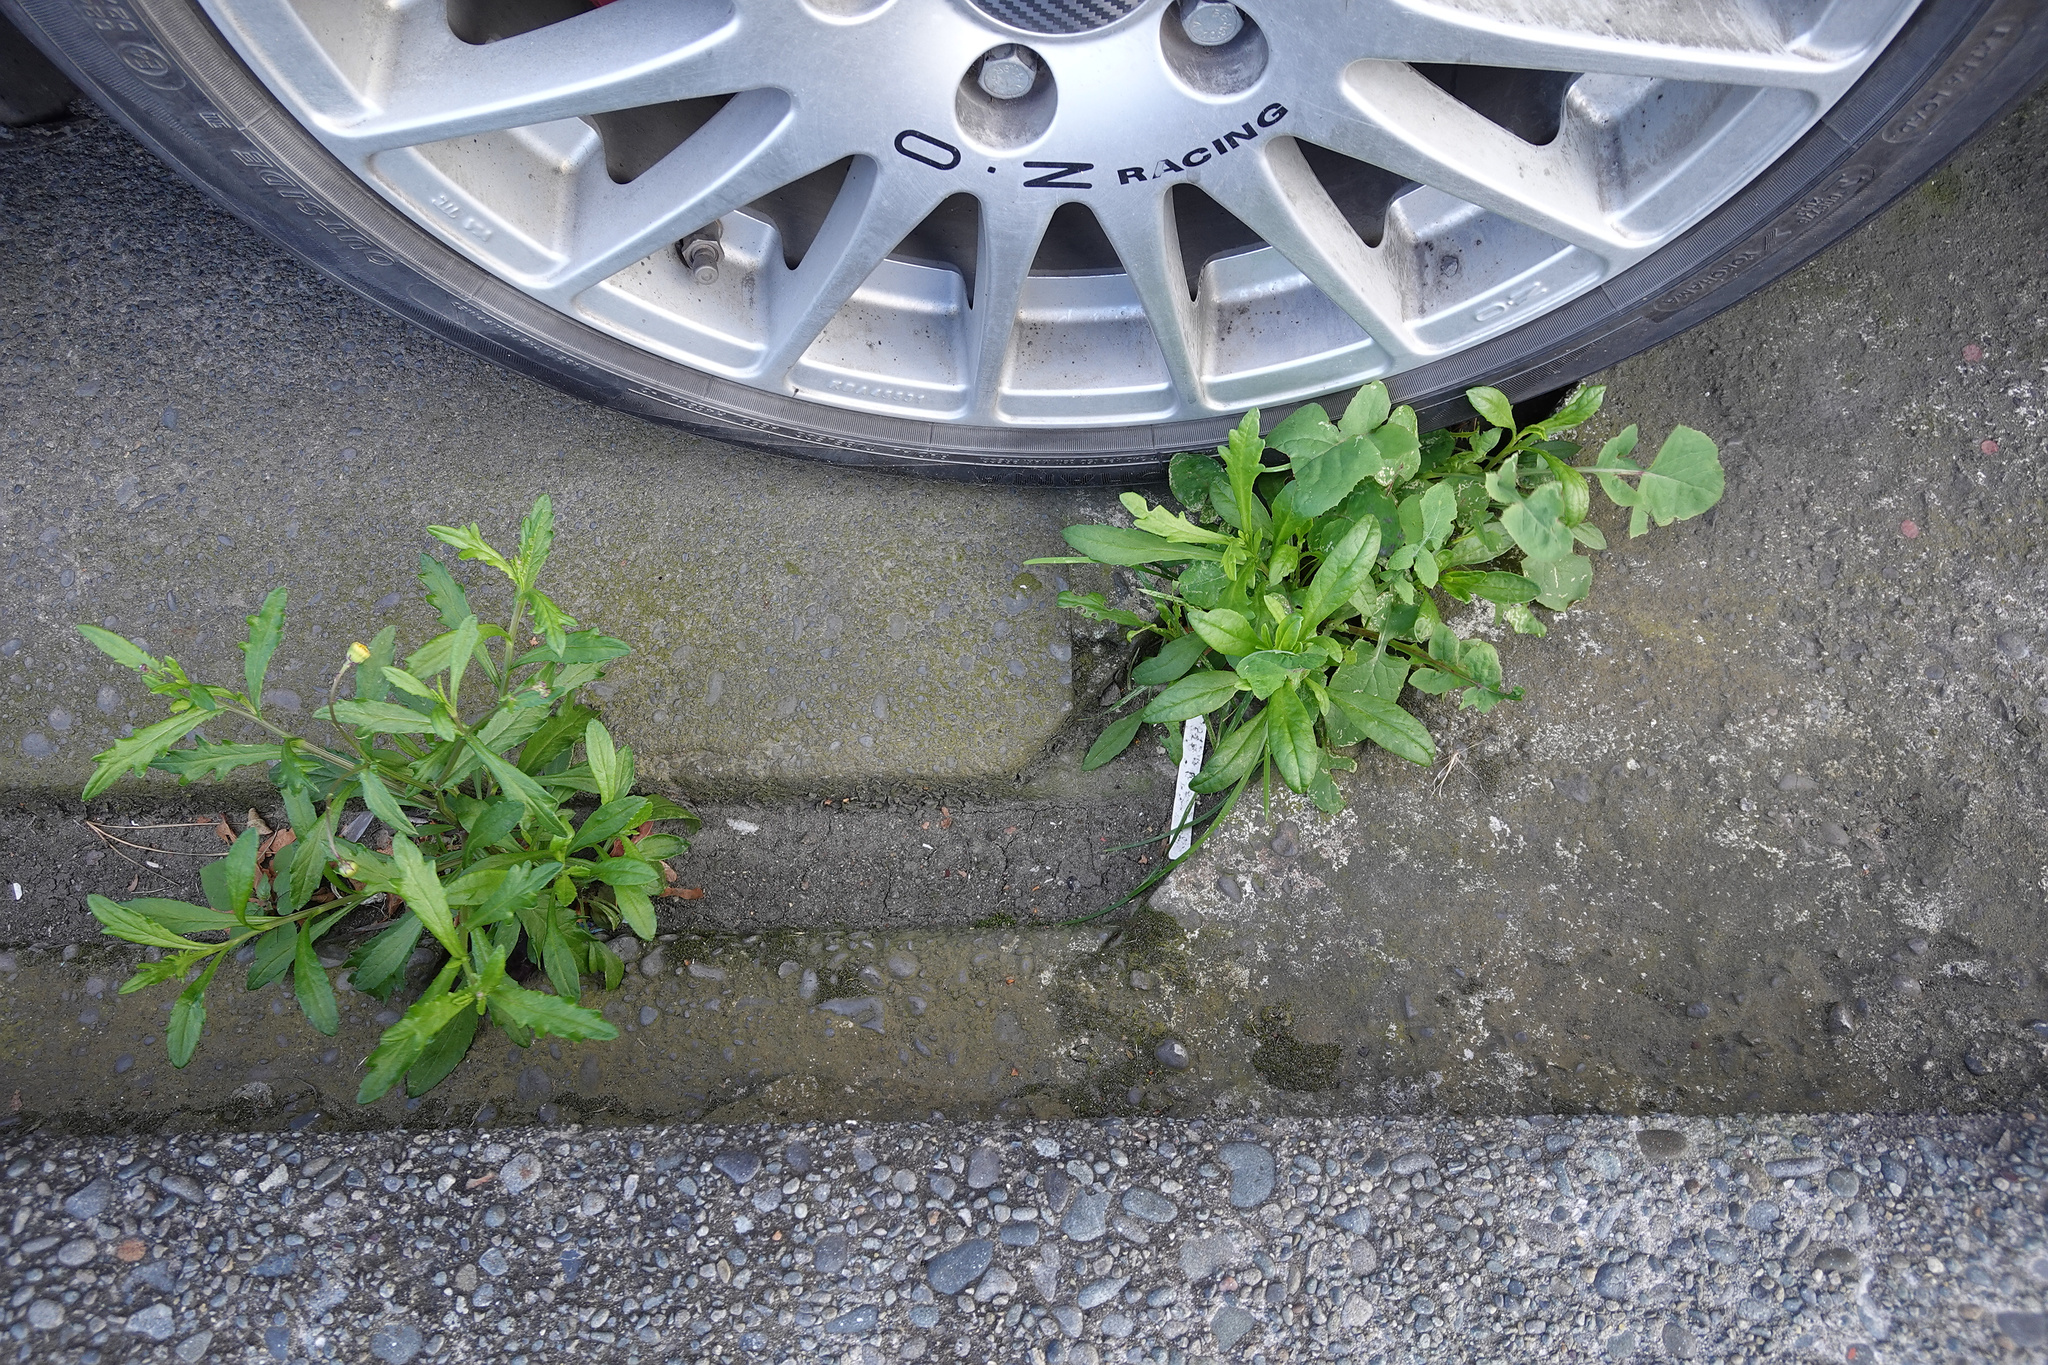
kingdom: Plantae
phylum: Tracheophyta
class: Magnoliopsida
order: Asterales
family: Asteraceae
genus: Senecio
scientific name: Senecio skirrhodon
